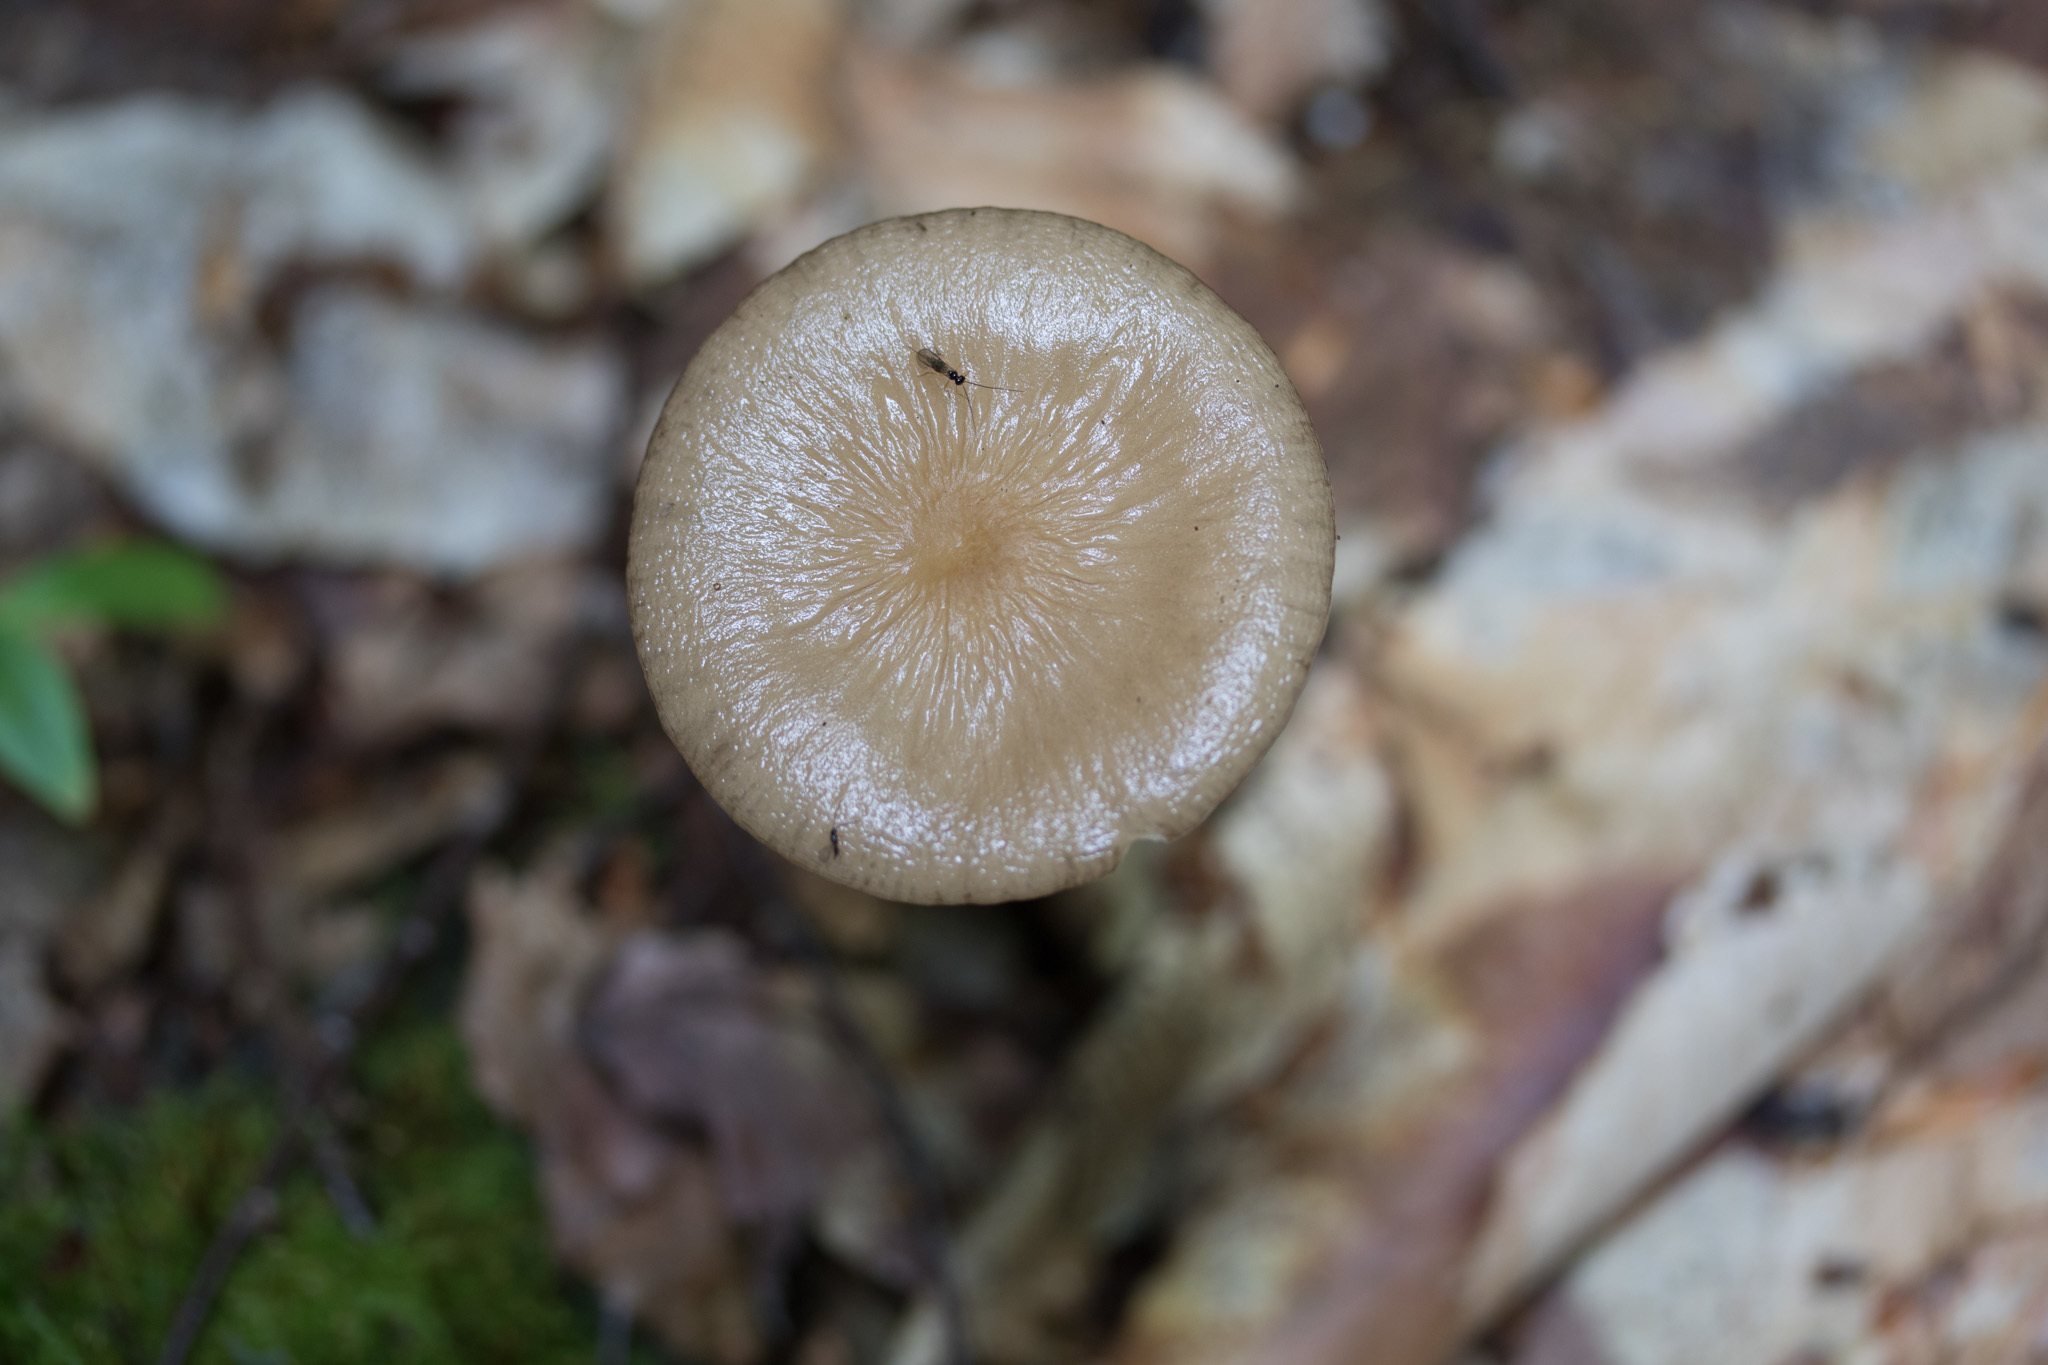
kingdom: Fungi
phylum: Basidiomycota
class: Agaricomycetes
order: Agaricales
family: Physalacriaceae
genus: Hymenopellis
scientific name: Hymenopellis furfuracea
